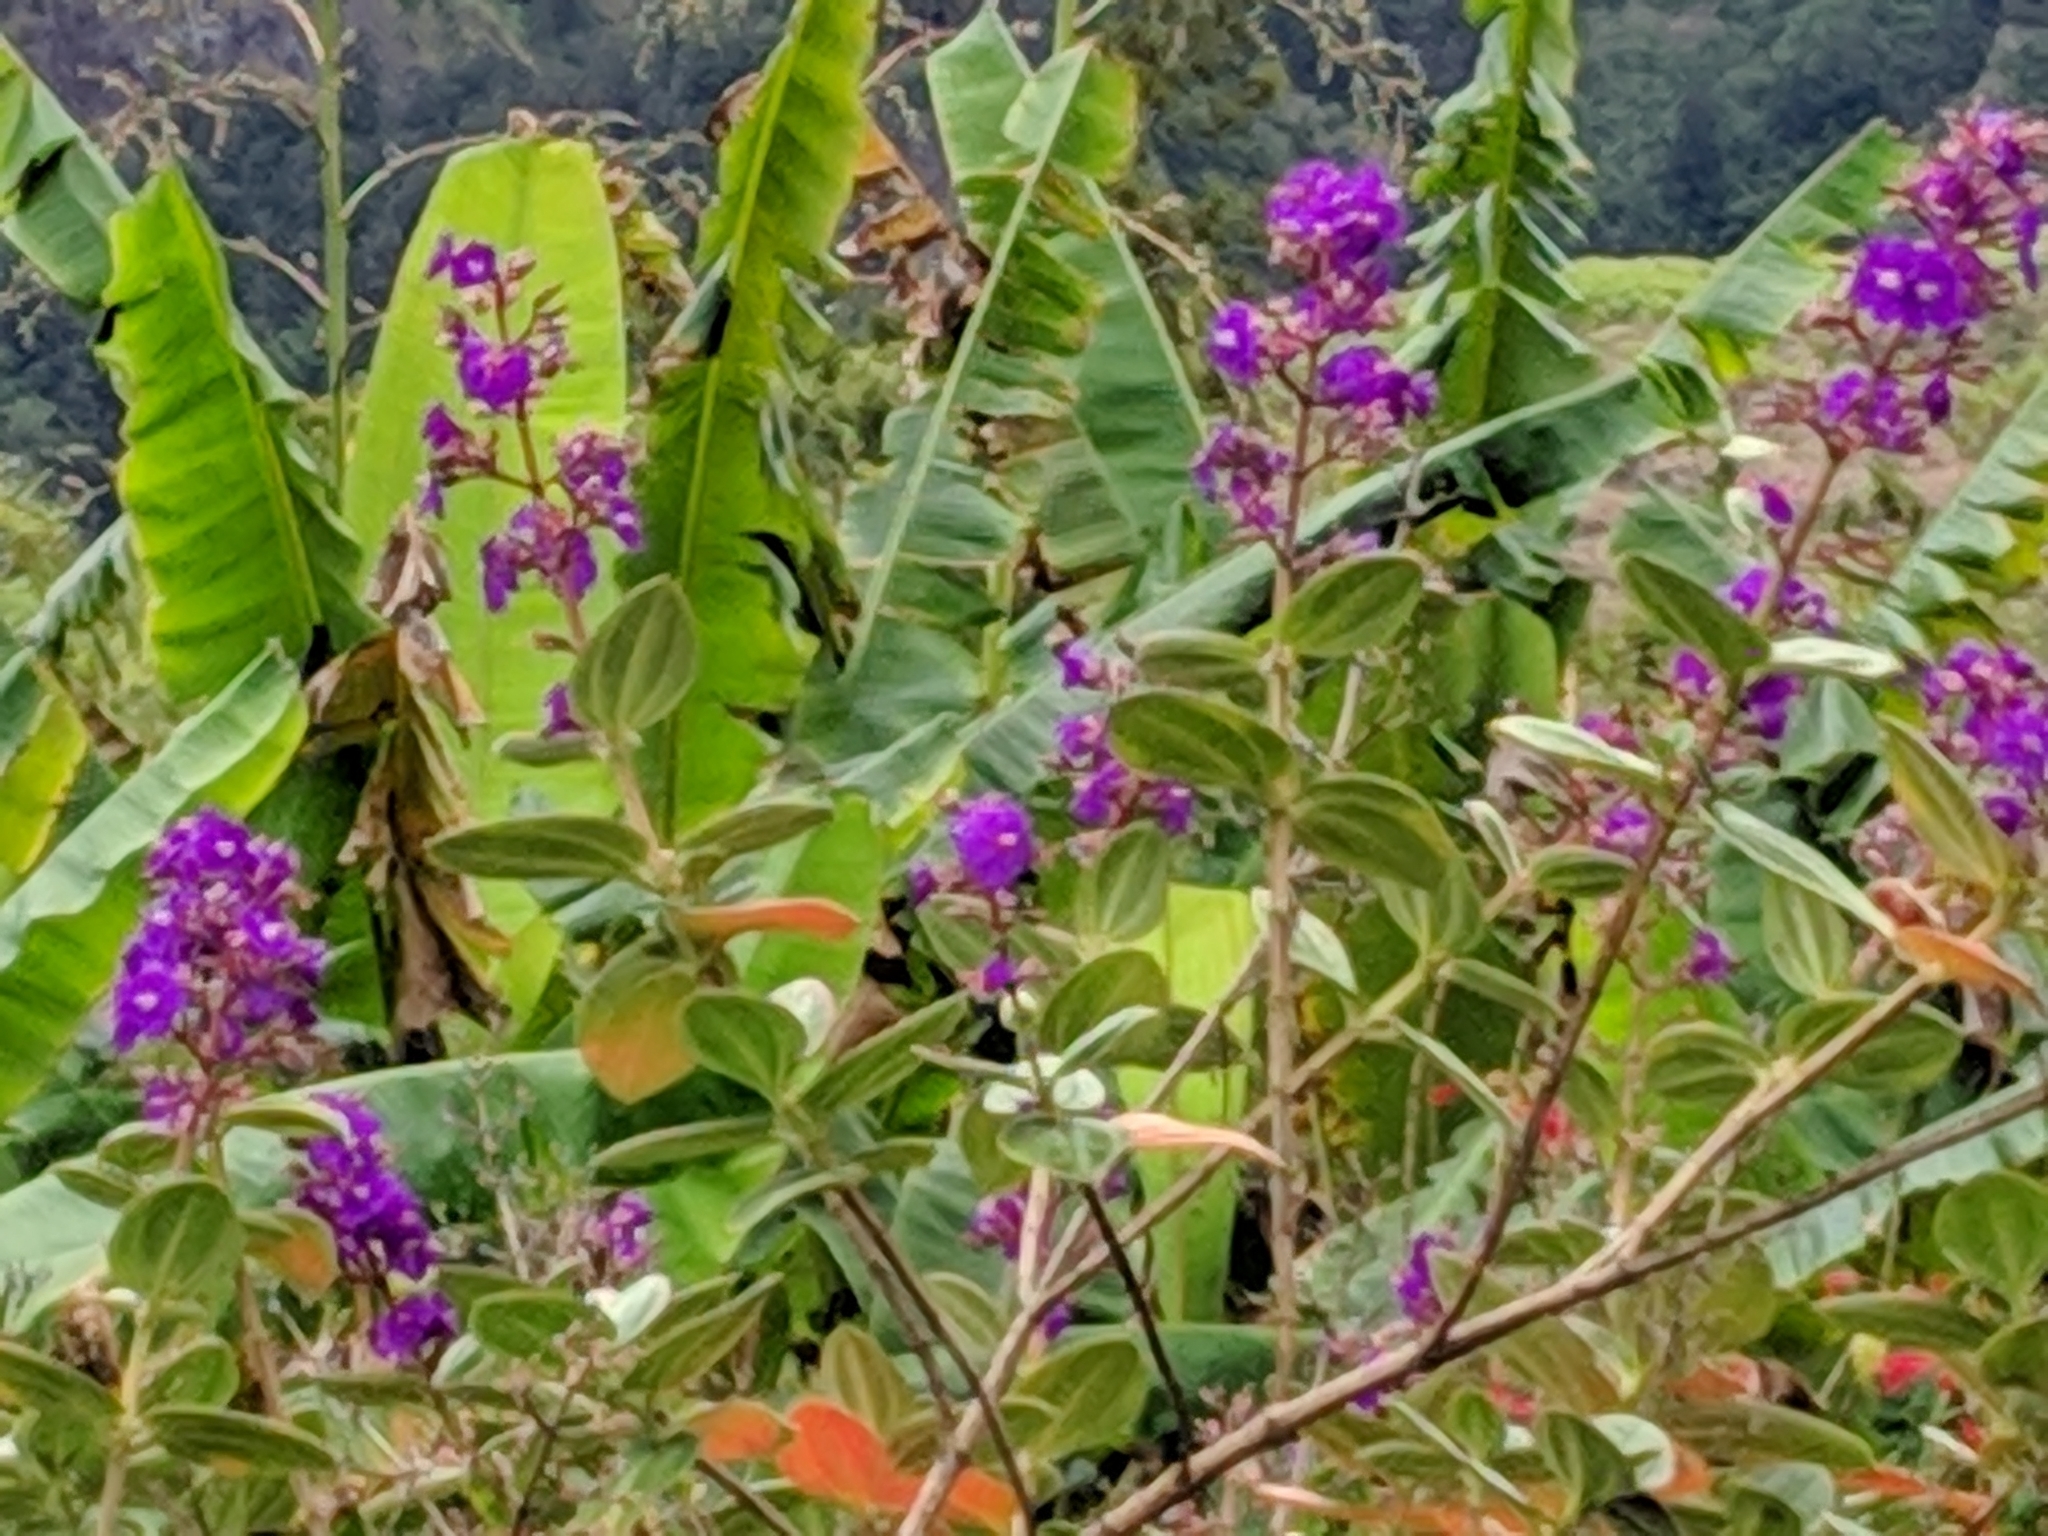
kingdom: Plantae
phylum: Tracheophyta
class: Magnoliopsida
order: Myrtales
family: Melastomataceae
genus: Pleroma
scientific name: Pleroma heteromallum
